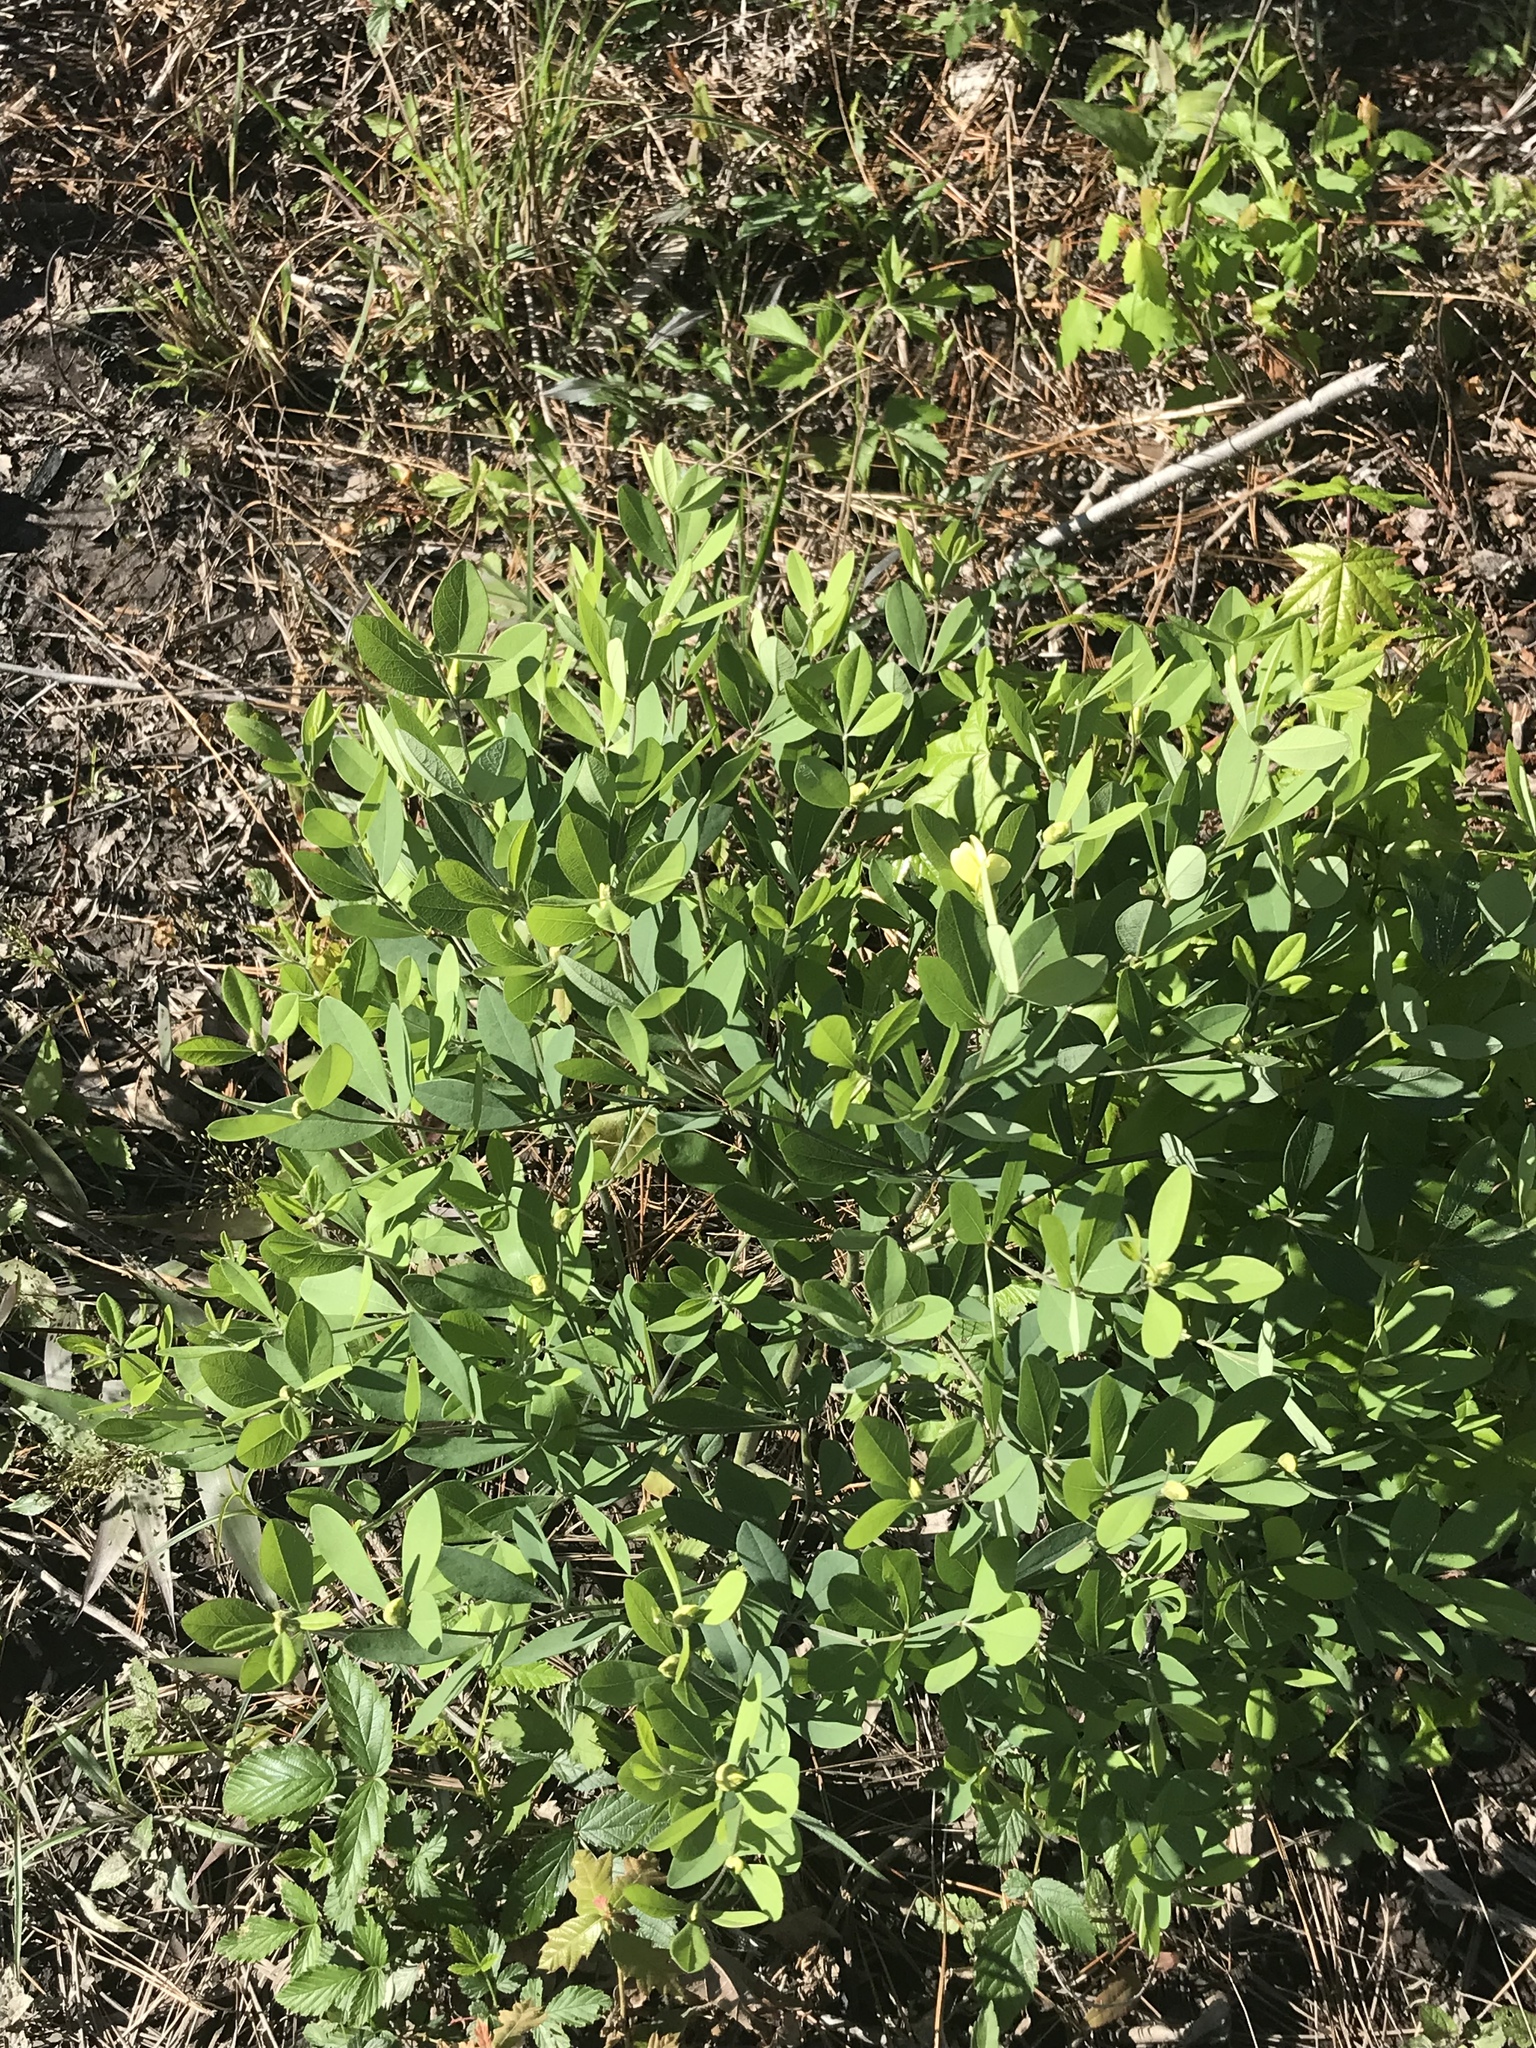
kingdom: Plantae
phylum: Tracheophyta
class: Magnoliopsida
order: Fabales
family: Fabaceae
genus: Baptisia
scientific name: Baptisia nuttalliana
